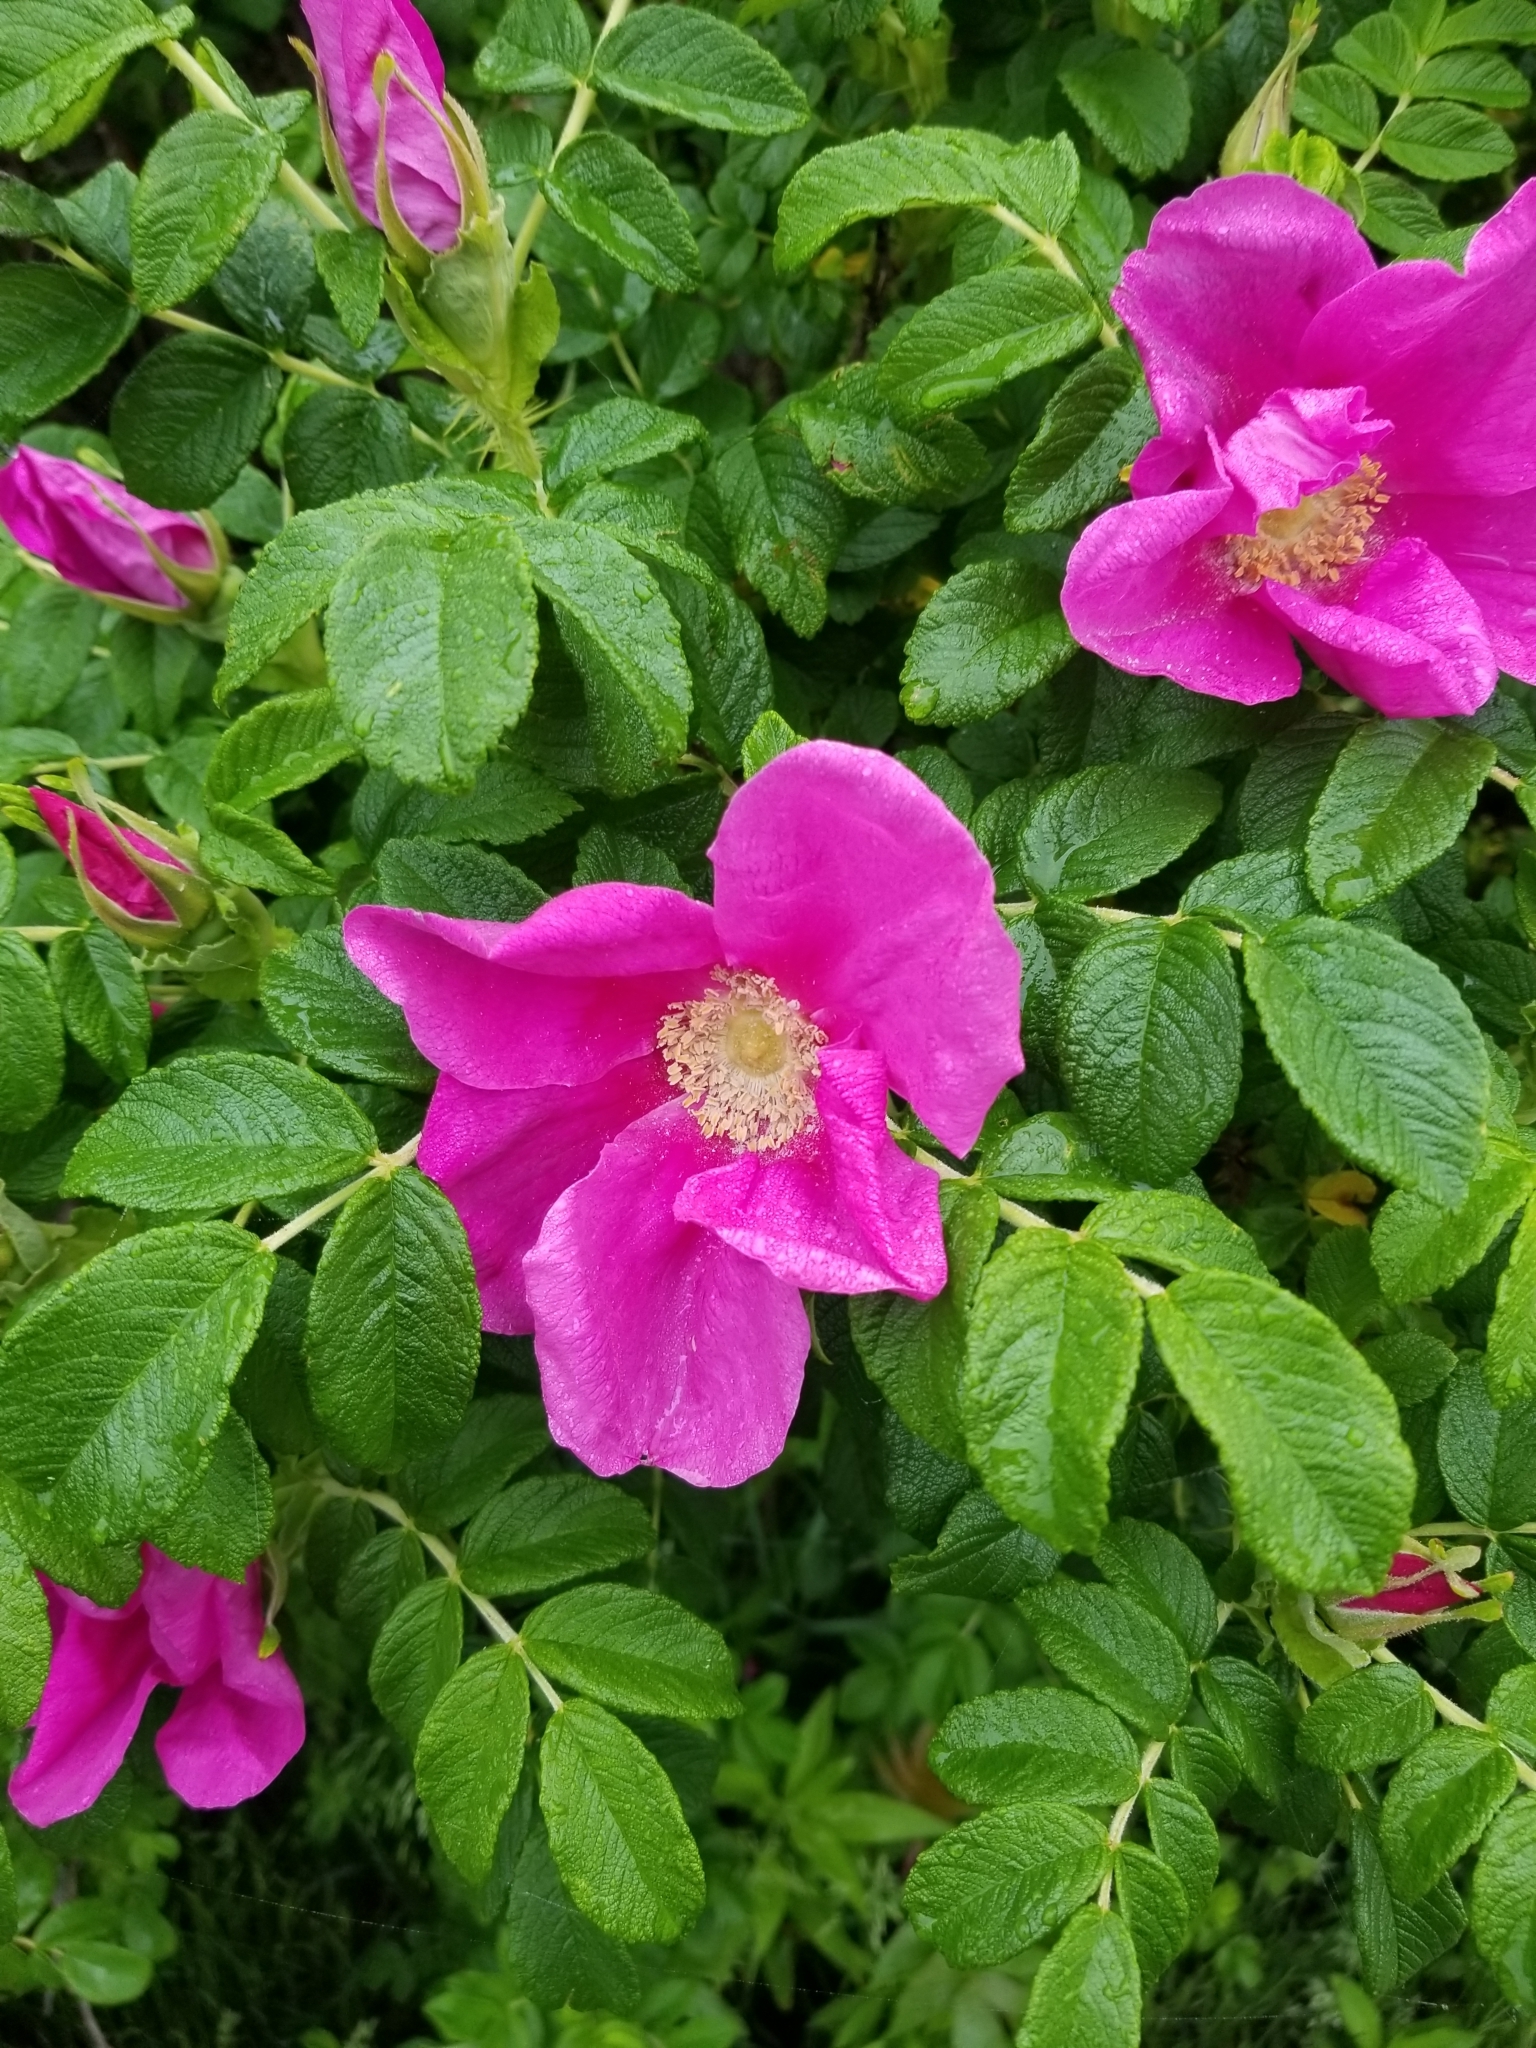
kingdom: Plantae
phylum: Tracheophyta
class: Magnoliopsida
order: Rosales
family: Rosaceae
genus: Rosa
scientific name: Rosa rugosa
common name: Japanese rose
